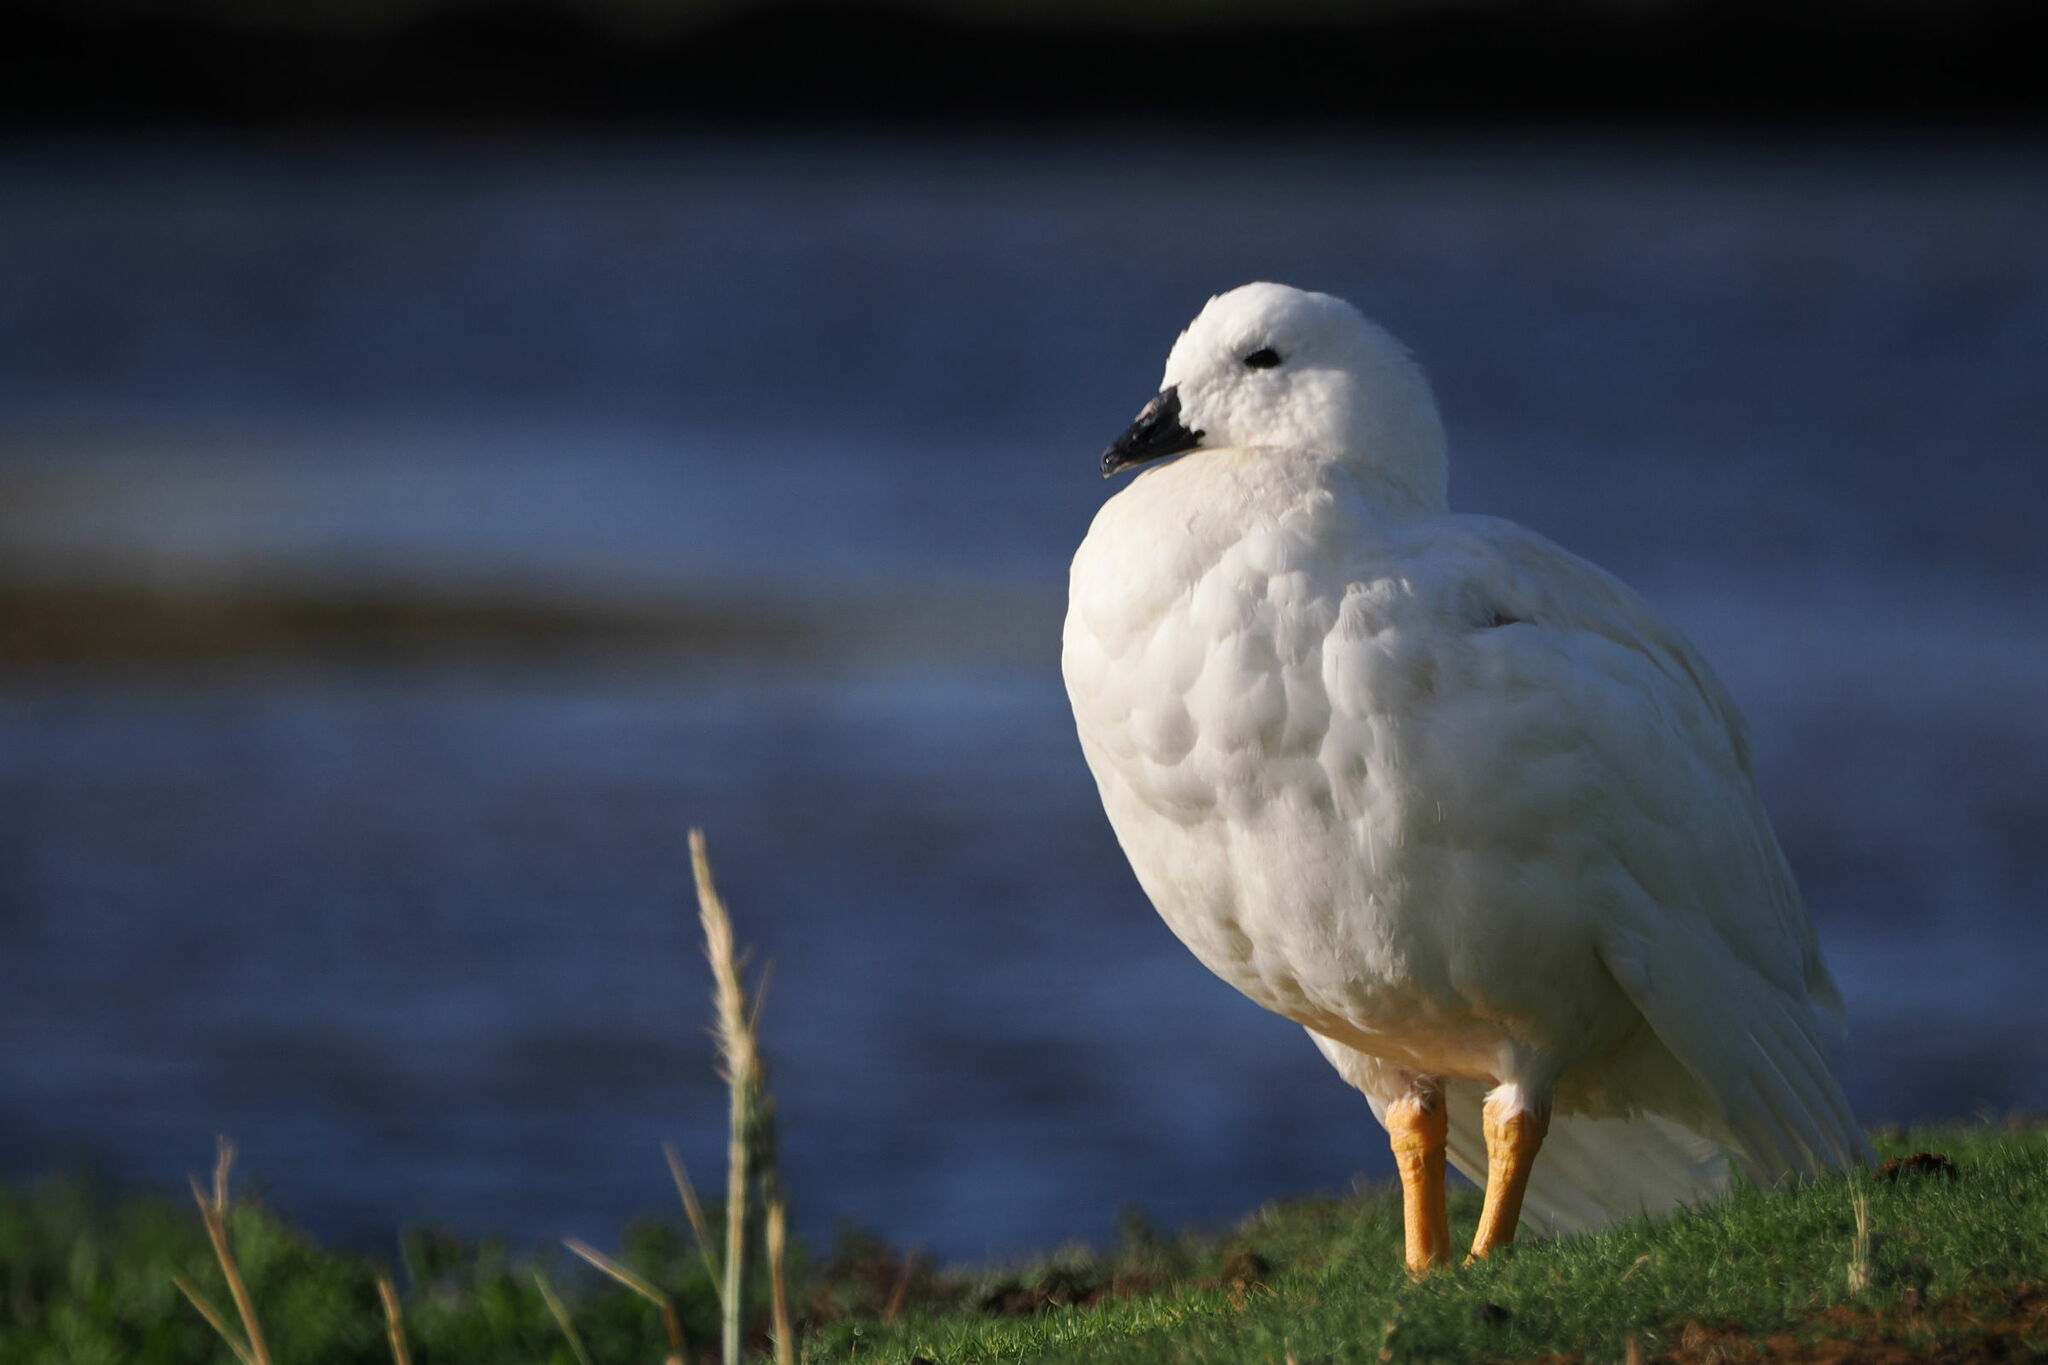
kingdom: Animalia
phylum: Chordata
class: Aves
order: Anseriformes
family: Anatidae
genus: Chloephaga
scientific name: Chloephaga hybrida
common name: Kelp goose
